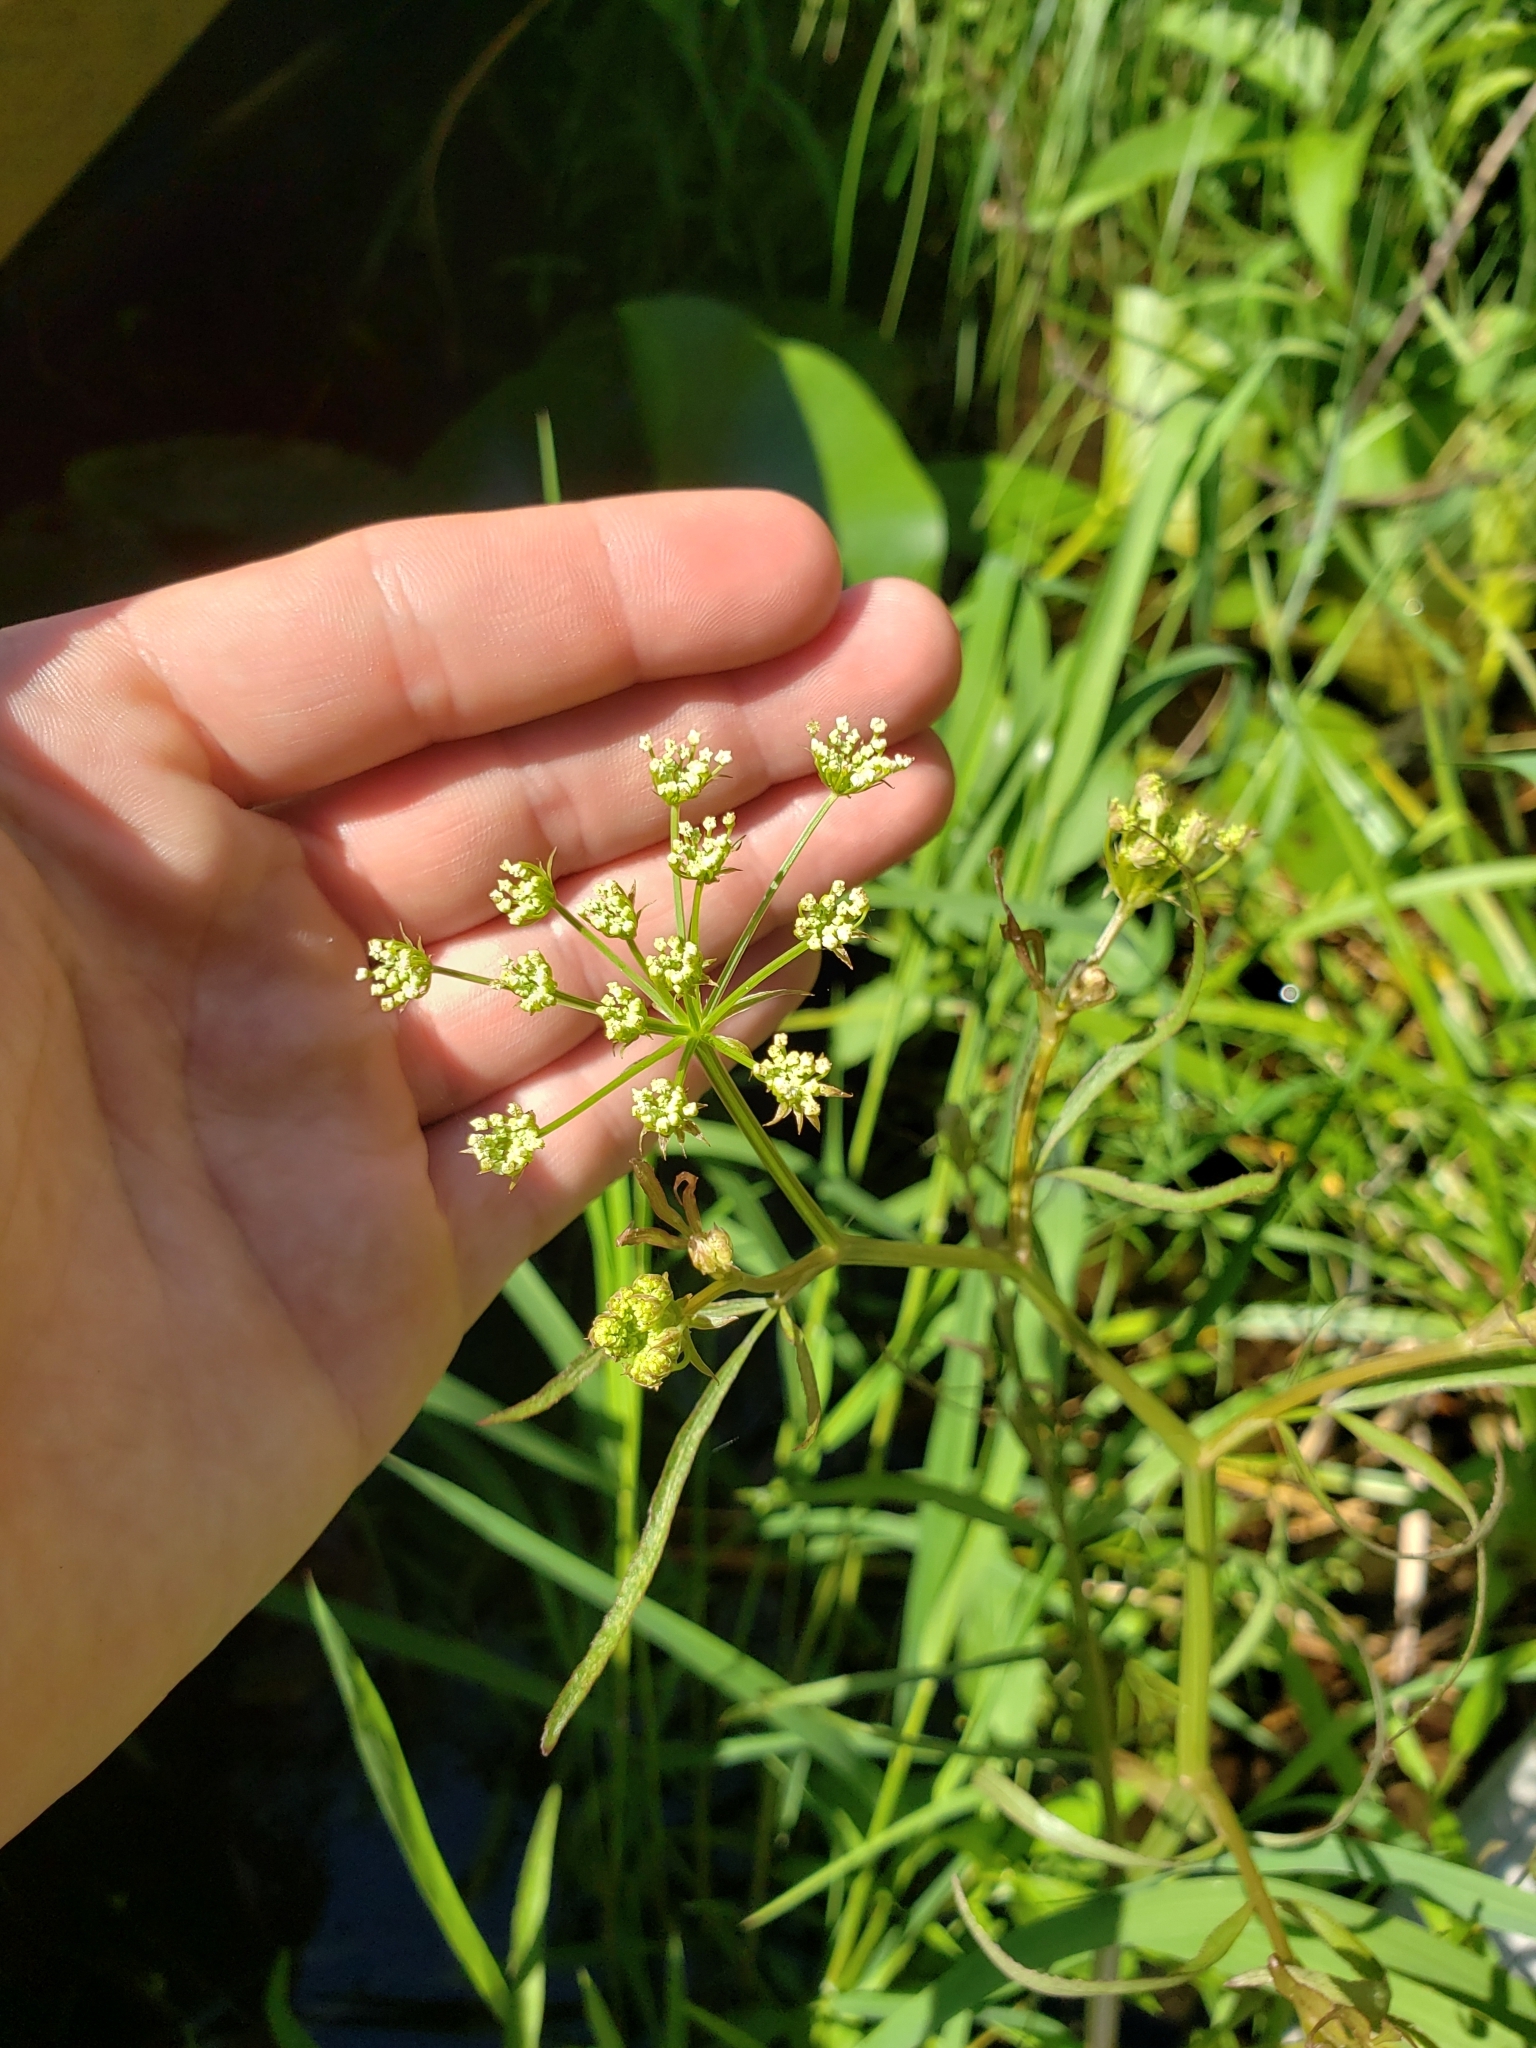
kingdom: Plantae
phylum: Tracheophyta
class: Magnoliopsida
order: Apiales
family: Apiaceae
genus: Sium
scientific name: Sium suave
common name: Hemlock water-parsnip
